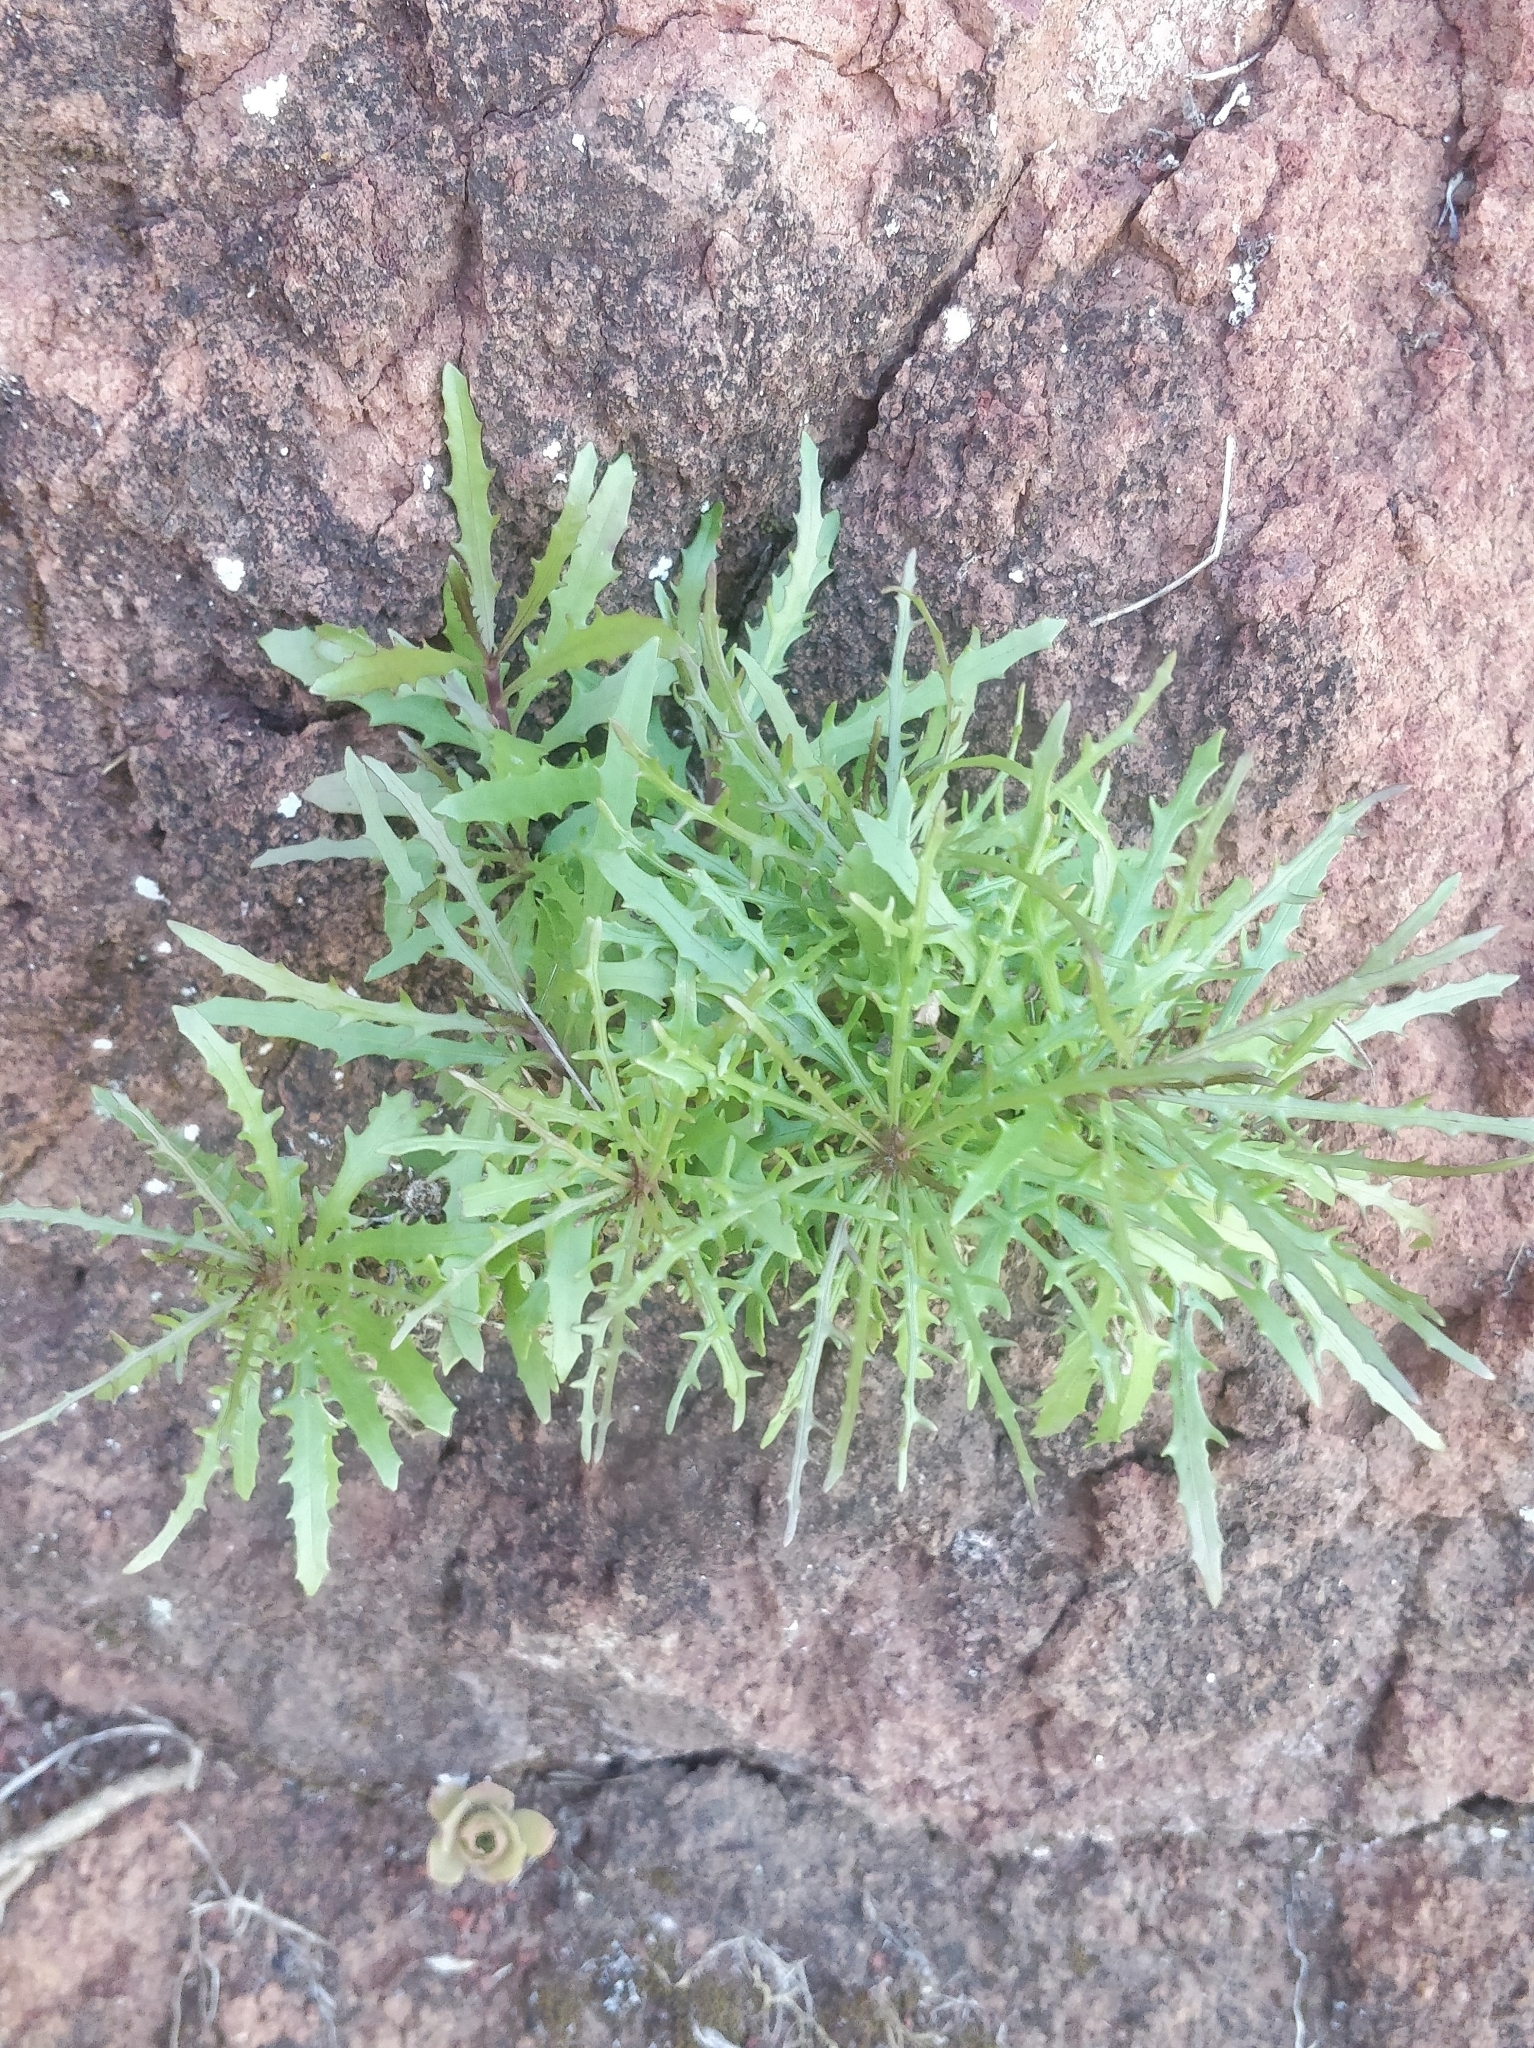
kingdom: Plantae
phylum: Tracheophyta
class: Magnoliopsida
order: Asterales
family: Asteraceae
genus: Tolpis
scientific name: Tolpis succulenta
